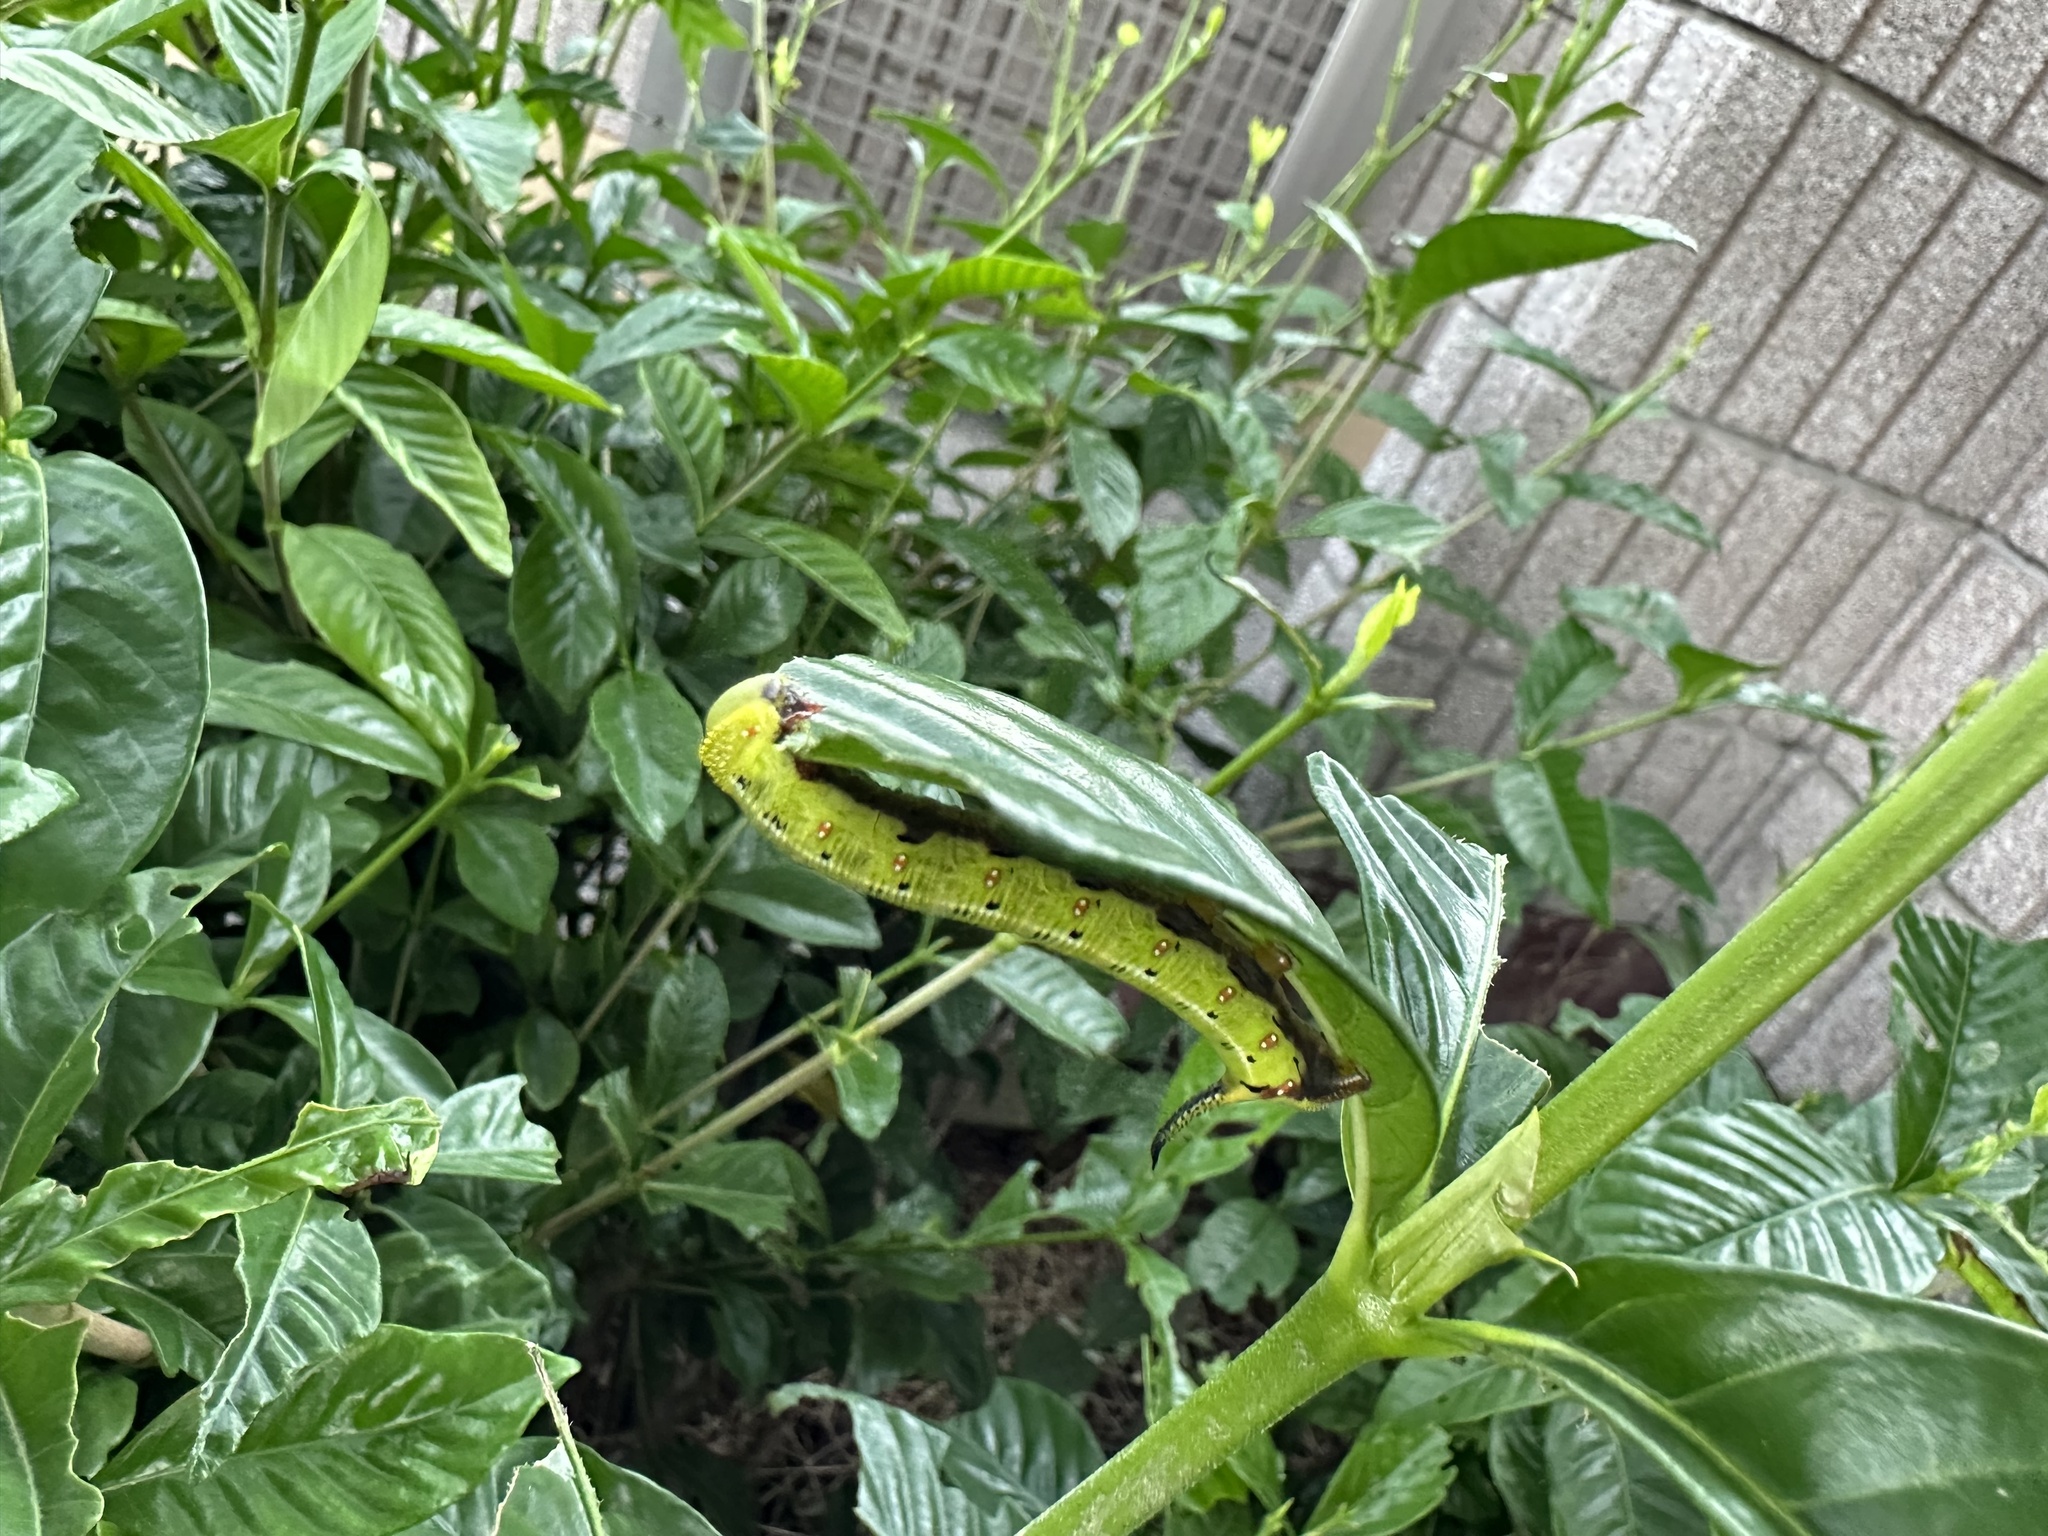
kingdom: Animalia
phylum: Arthropoda
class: Insecta
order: Lepidoptera
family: Sphingidae
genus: Cephonodes
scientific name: Cephonodes hylas
